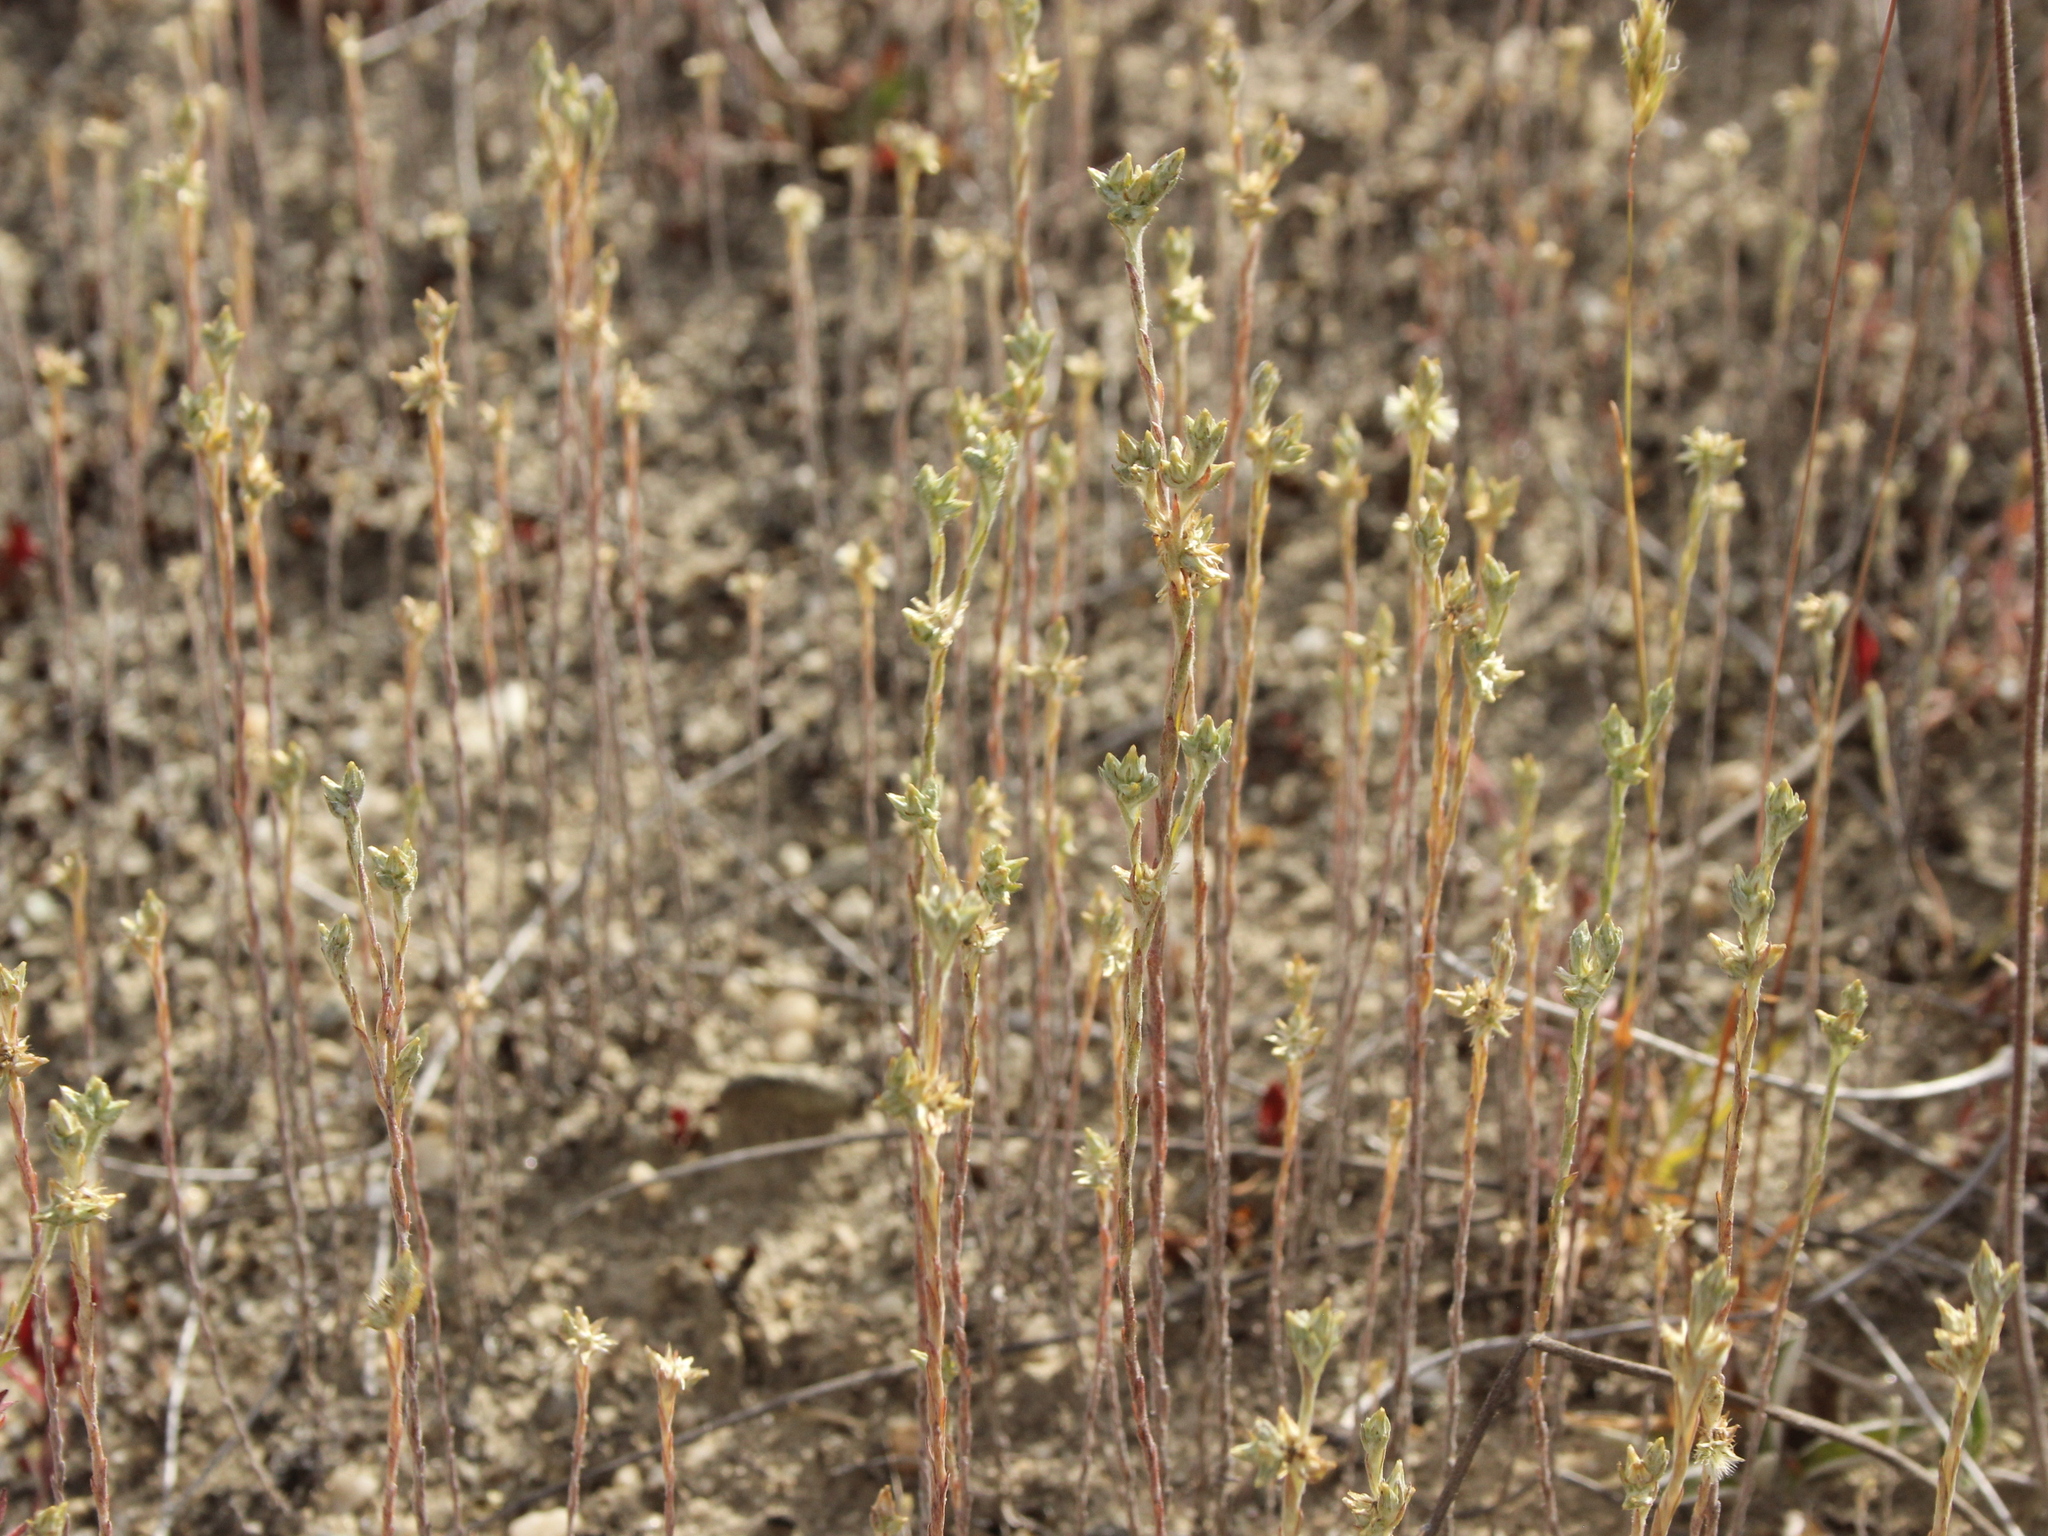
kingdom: Plantae
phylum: Tracheophyta
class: Magnoliopsida
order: Asterales
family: Asteraceae
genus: Logfia
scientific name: Logfia minima
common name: Little cottonrose
